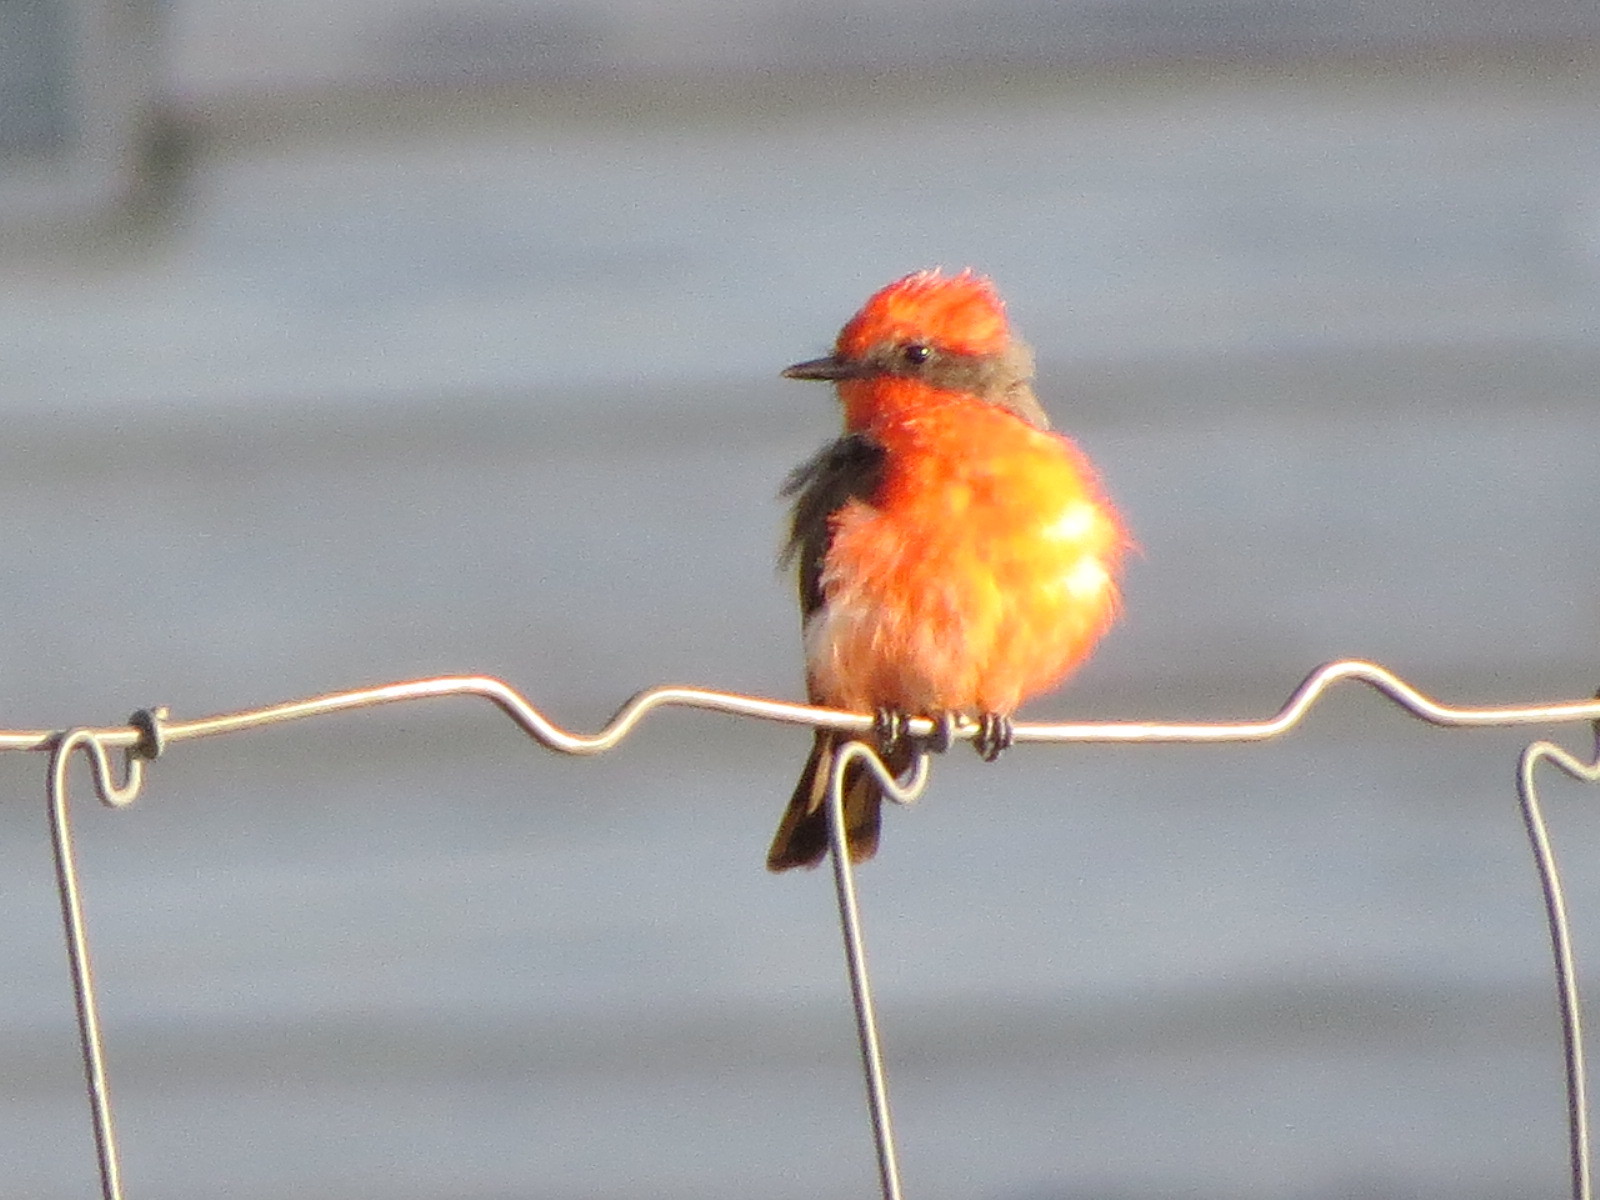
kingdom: Animalia
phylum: Chordata
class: Aves
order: Passeriformes
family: Tyrannidae
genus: Pyrocephalus
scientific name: Pyrocephalus rubinus
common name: Vermilion flycatcher
